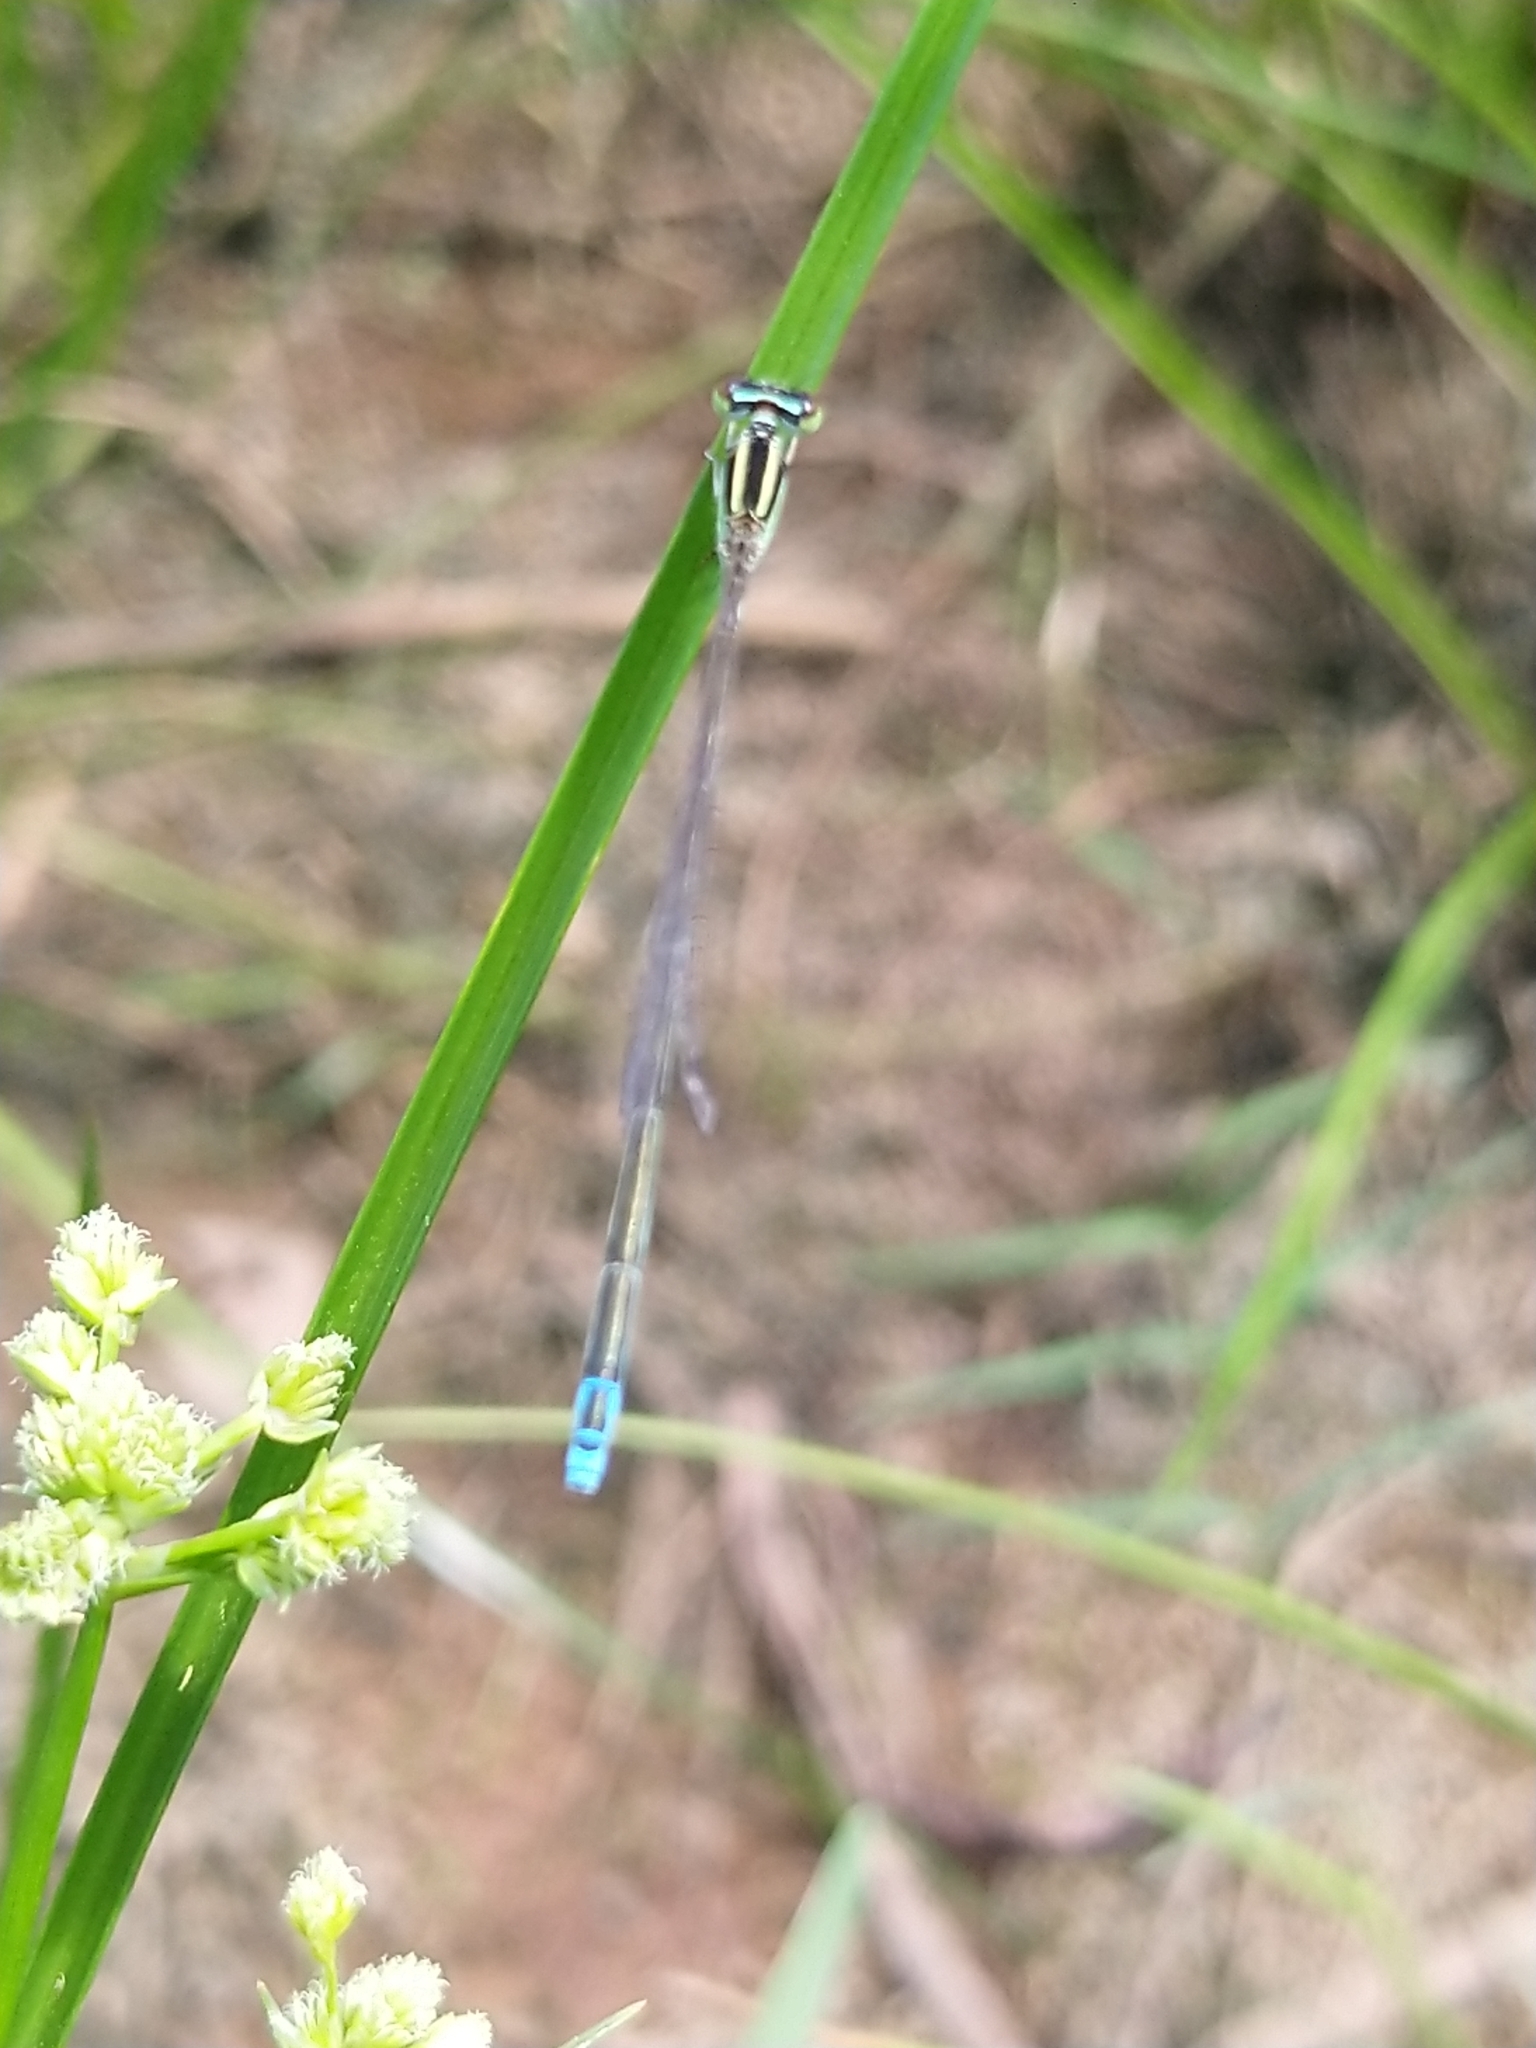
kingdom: Animalia
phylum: Arthropoda
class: Insecta
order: Odonata
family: Coenagrionidae
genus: Aciagrion
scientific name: Aciagrion occidentale
